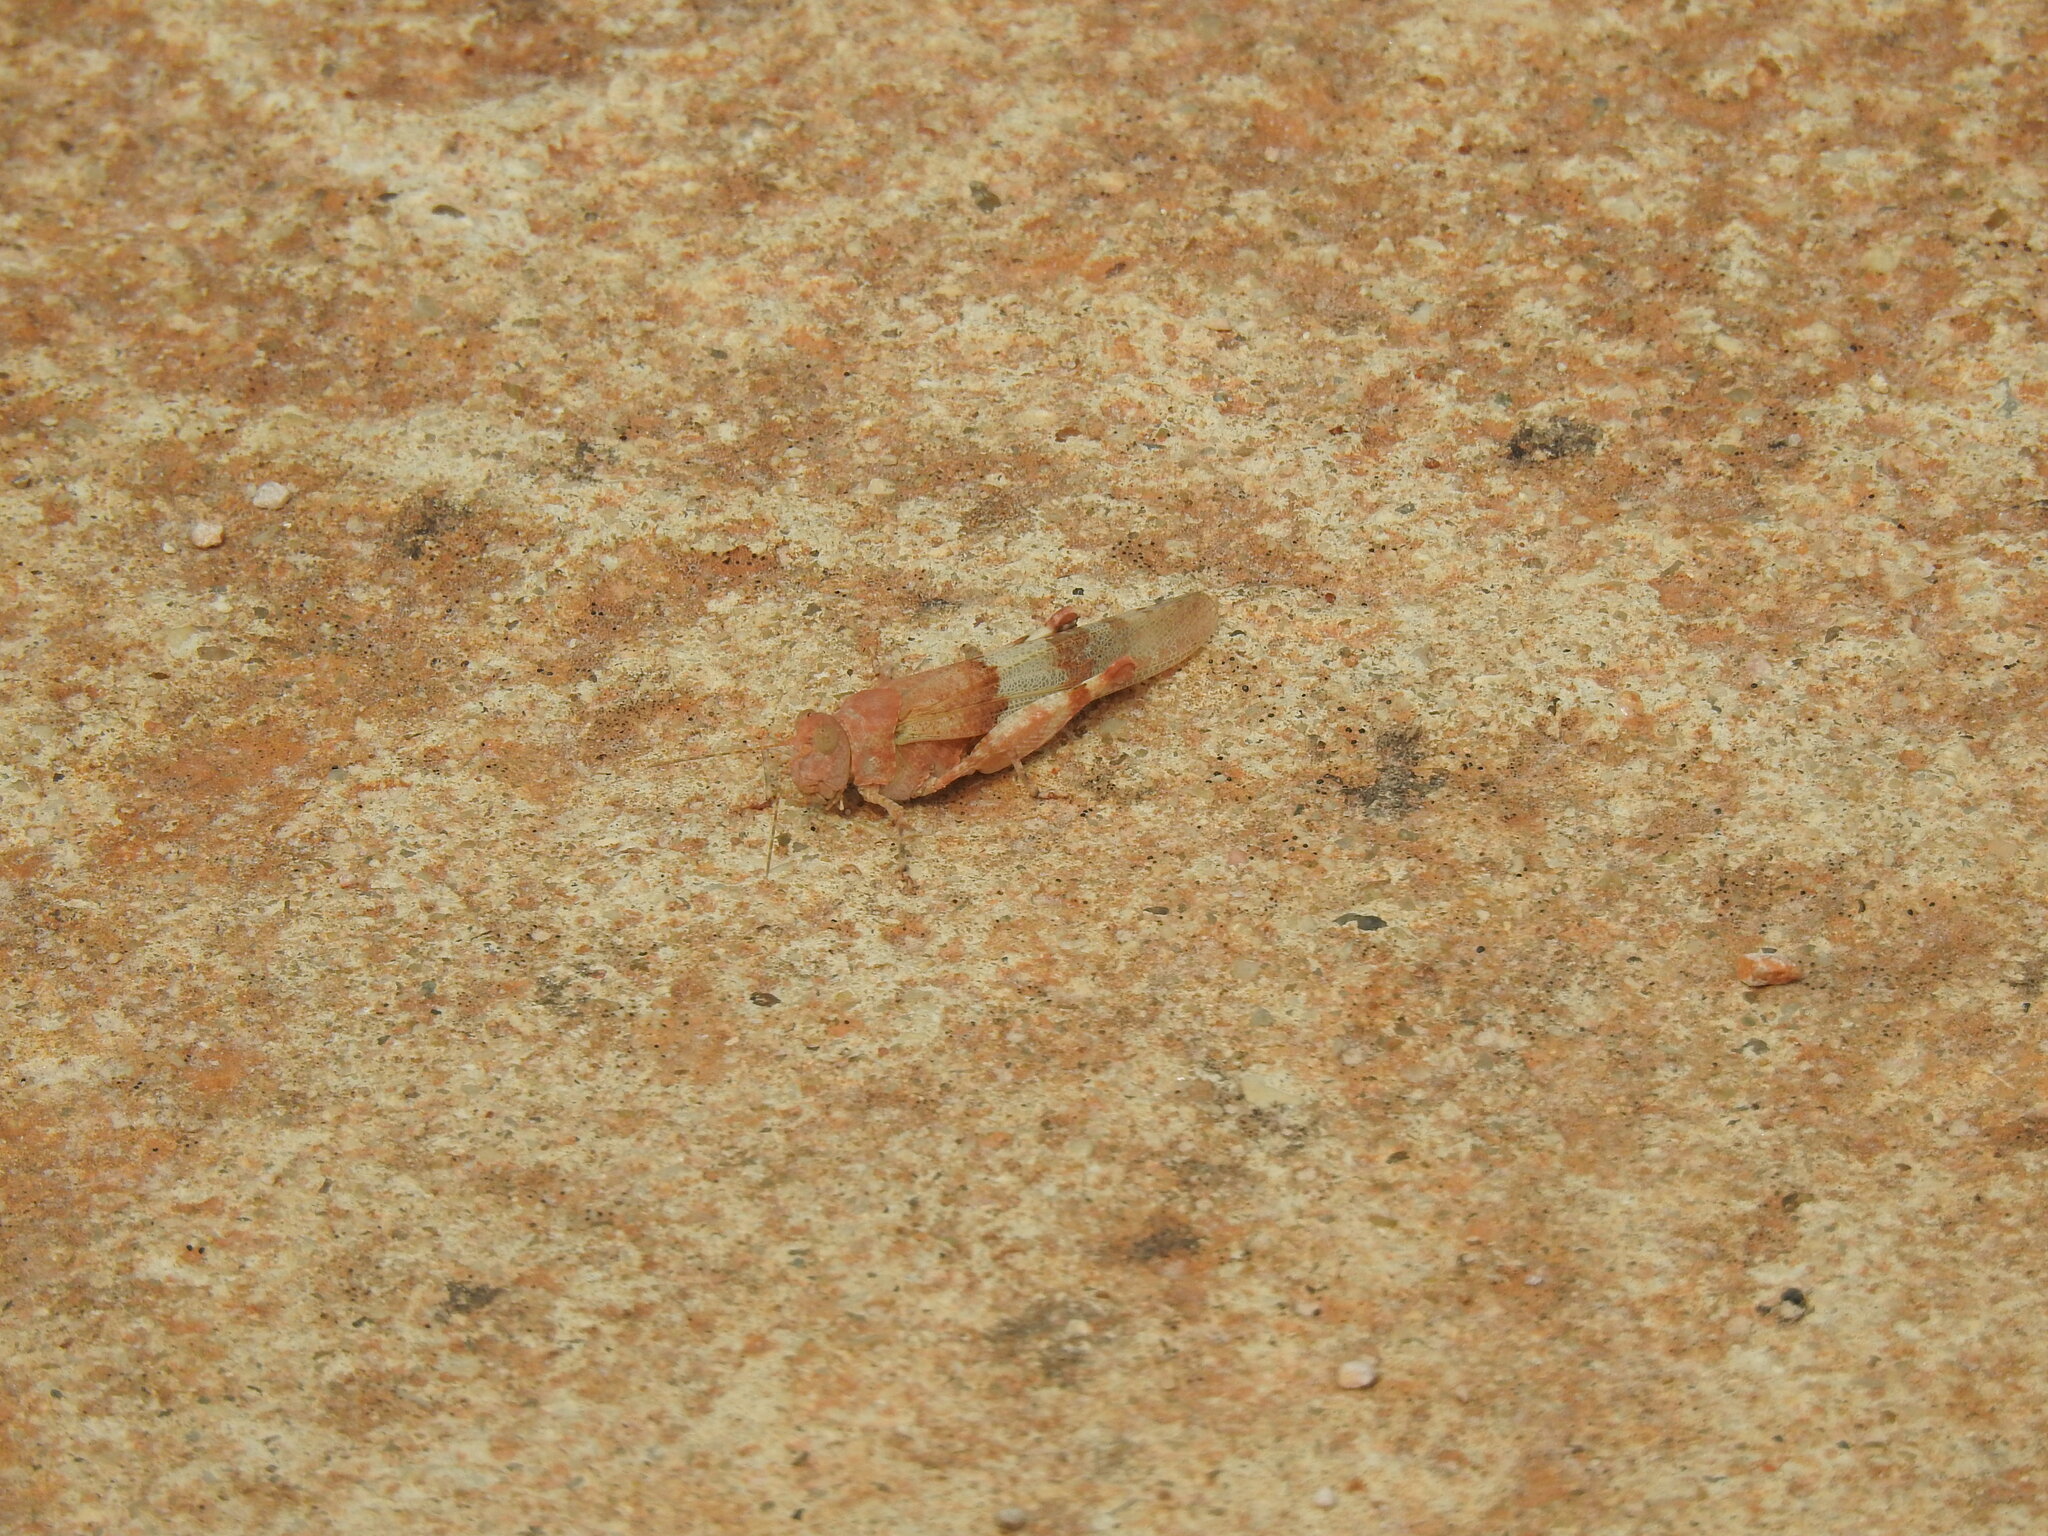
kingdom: Animalia
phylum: Arthropoda
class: Insecta
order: Orthoptera
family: Acrididae
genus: Sphingonotus
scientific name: Sphingonotus azurescens
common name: Azure sand grasshopper
